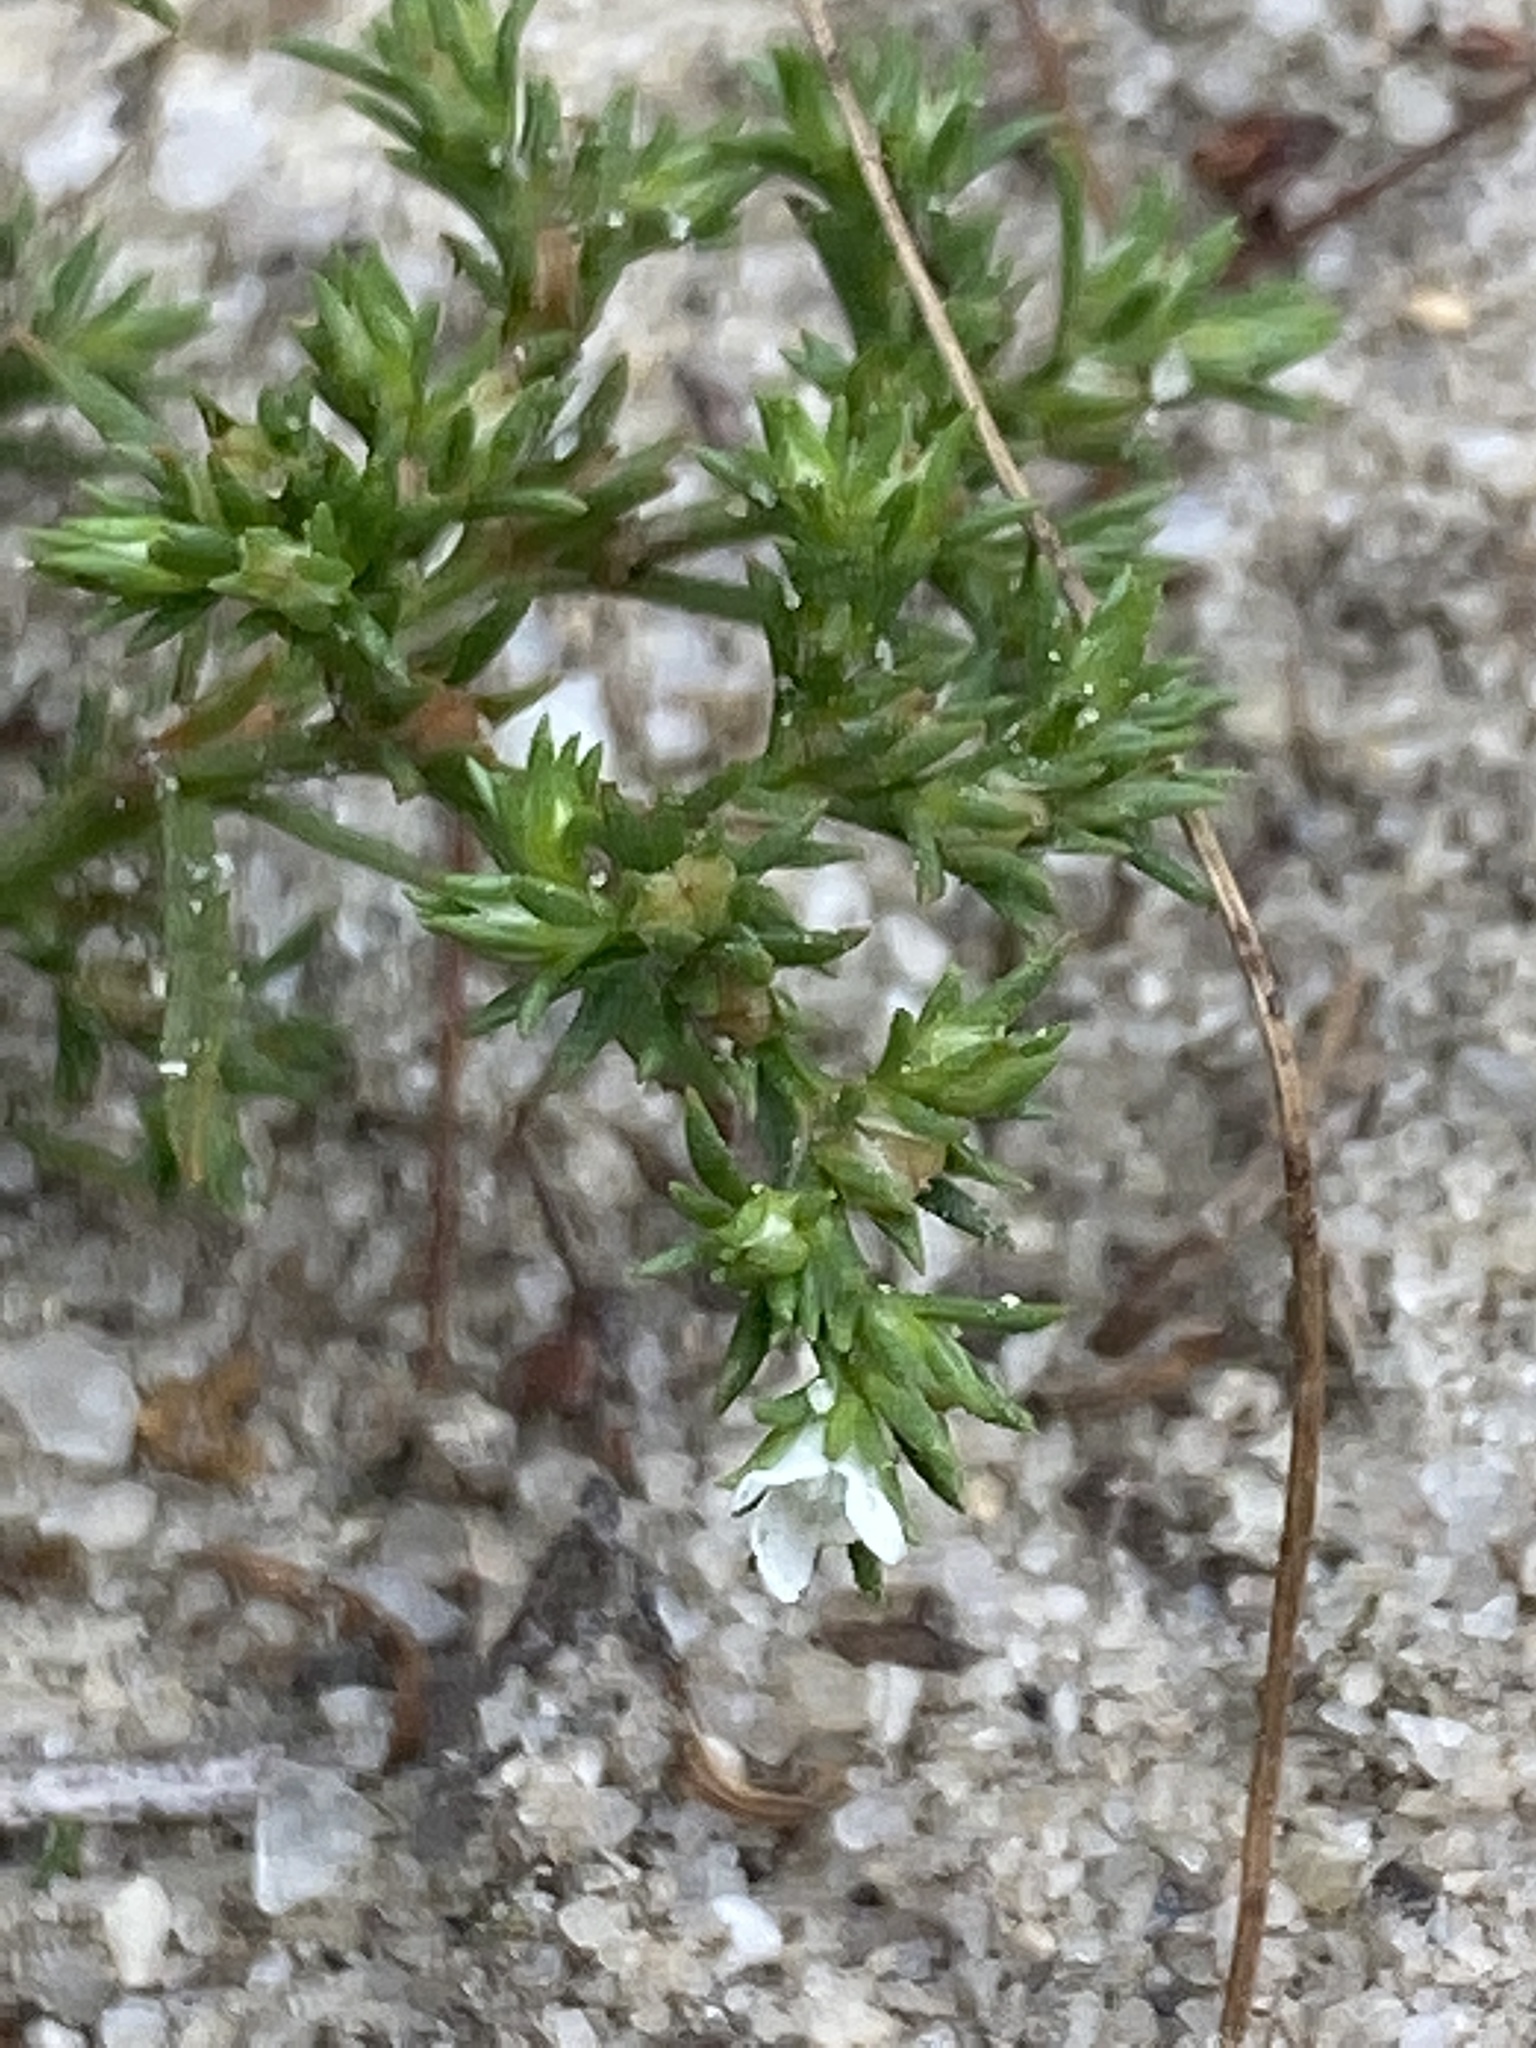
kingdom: Plantae
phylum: Tracheophyta
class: Magnoliopsida
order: Lamiales
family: Tetrachondraceae
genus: Polypremum
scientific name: Polypremum procumbens
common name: Juniper-leaf
